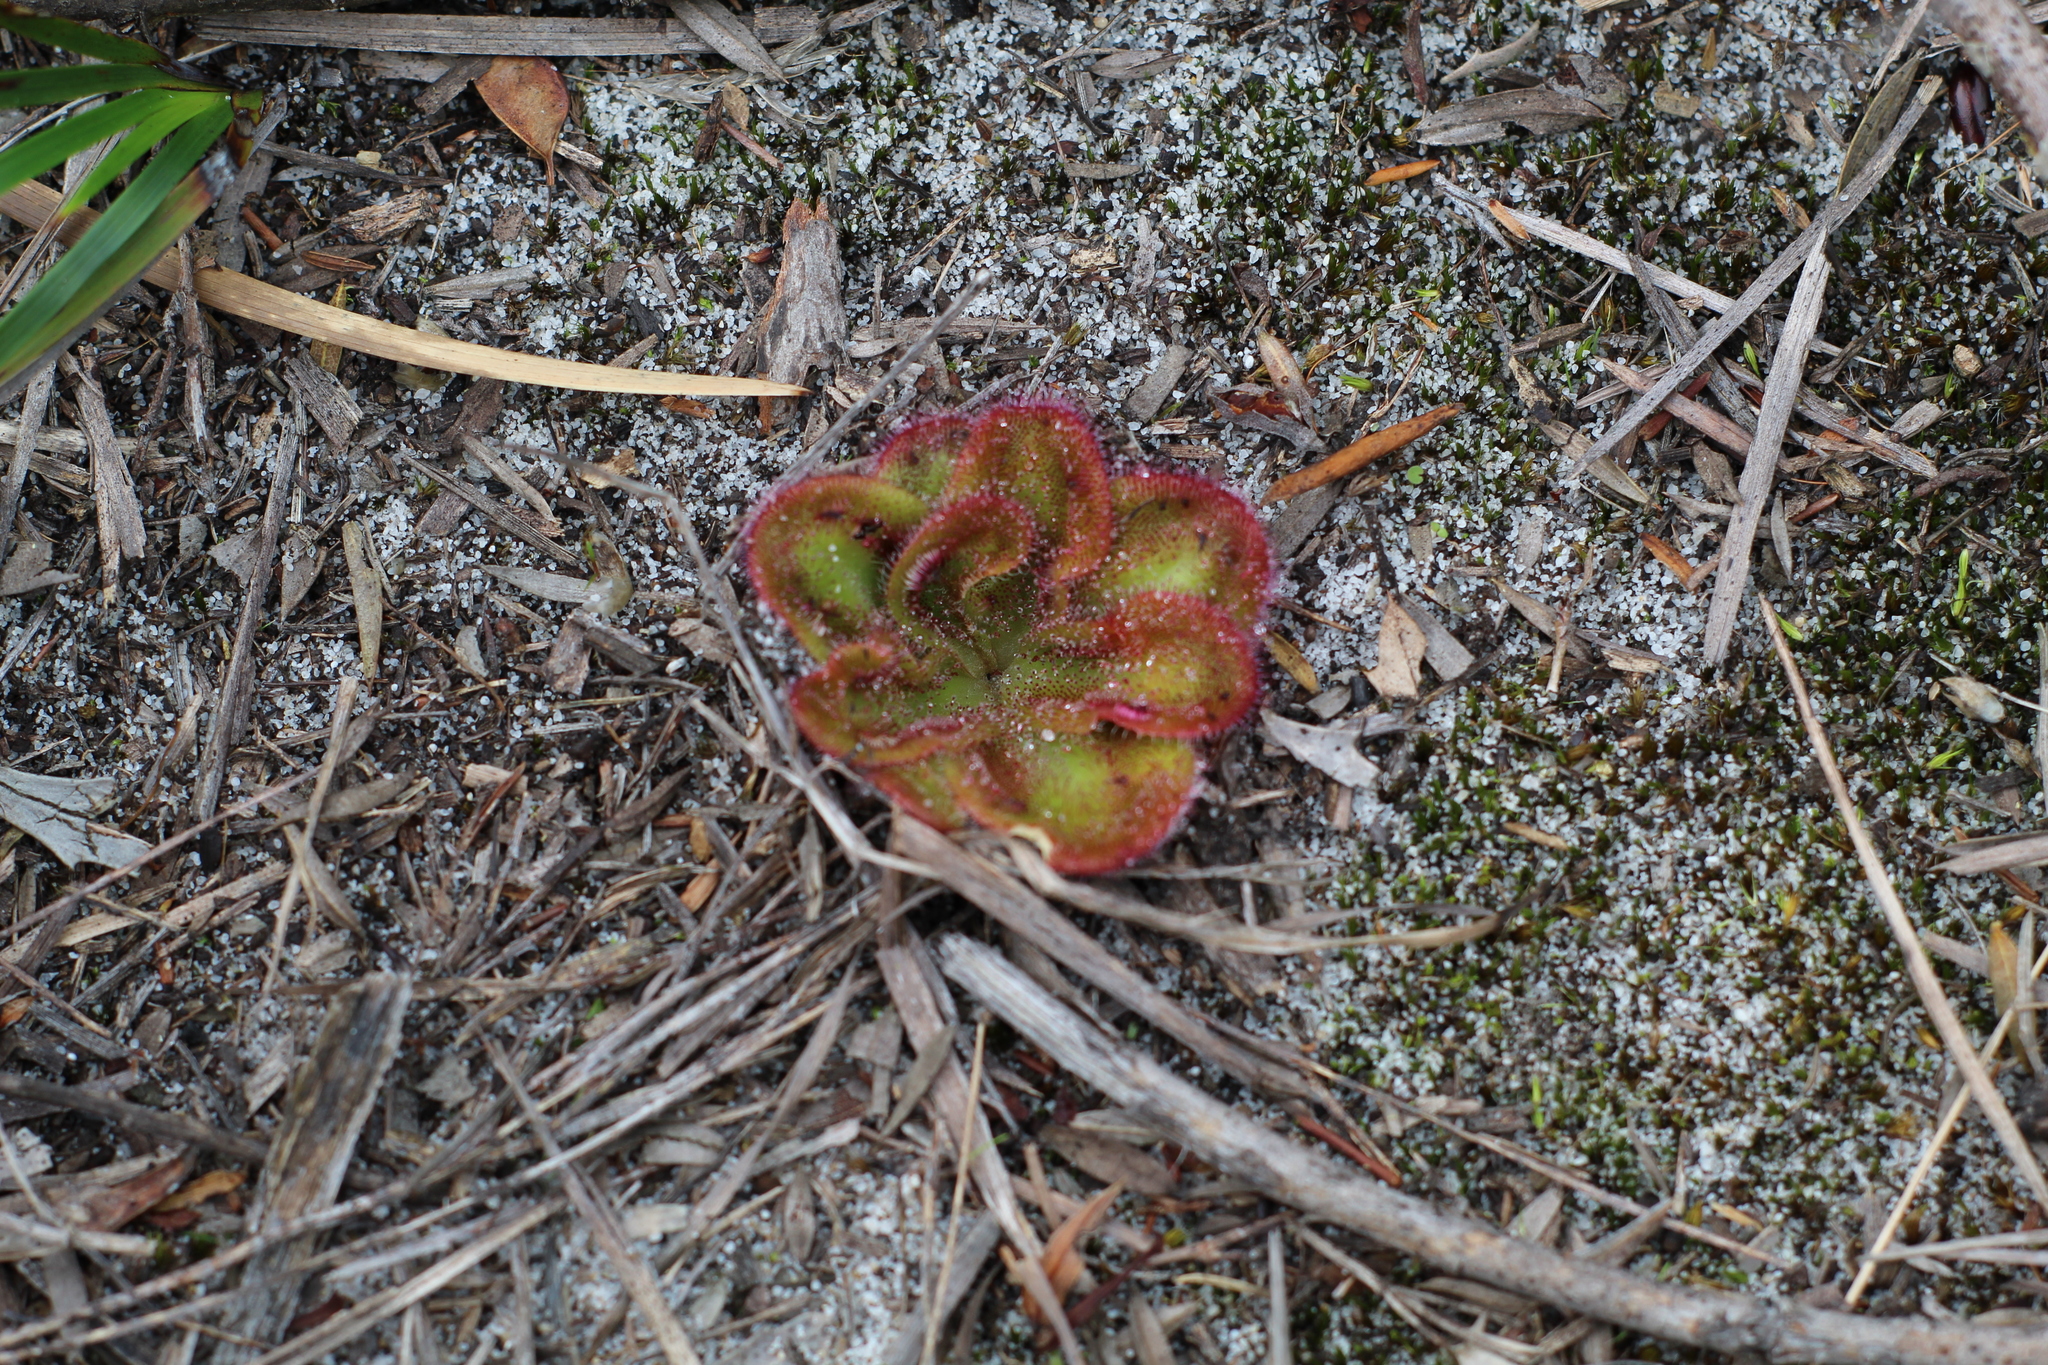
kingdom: Plantae
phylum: Tracheophyta
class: Magnoliopsida
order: Caryophyllales
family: Droseraceae
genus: Drosera
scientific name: Drosera erythrorhiza
